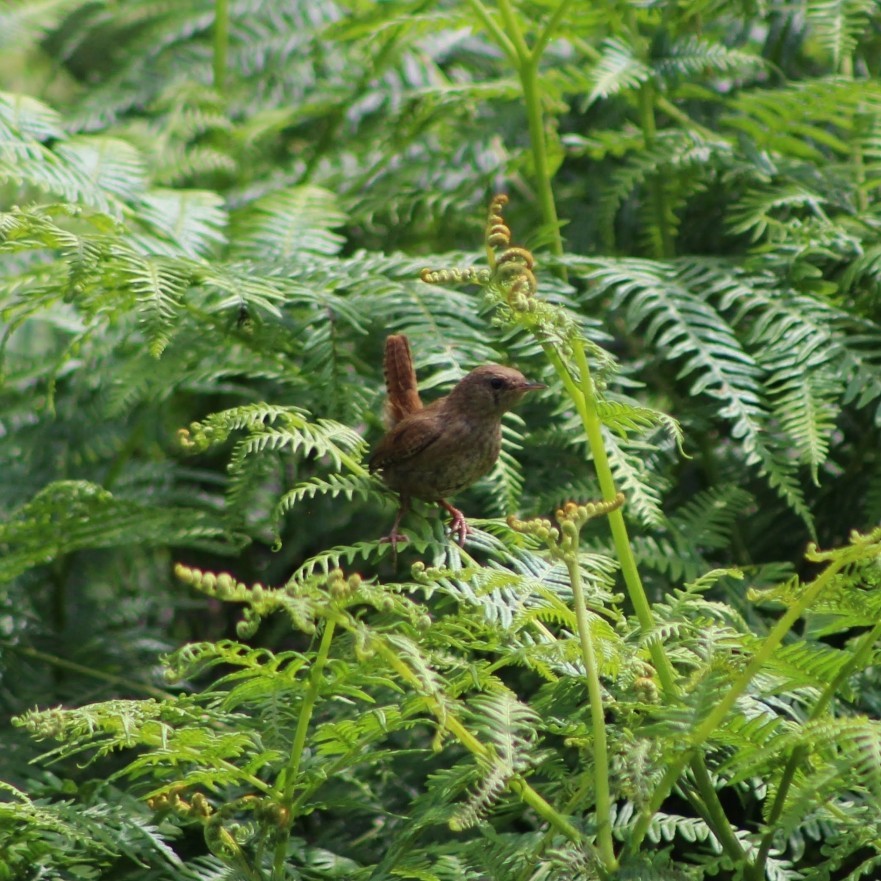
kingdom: Animalia
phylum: Chordata
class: Aves
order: Passeriformes
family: Troglodytidae
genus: Troglodytes
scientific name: Troglodytes troglodytes
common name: Eurasian wren
